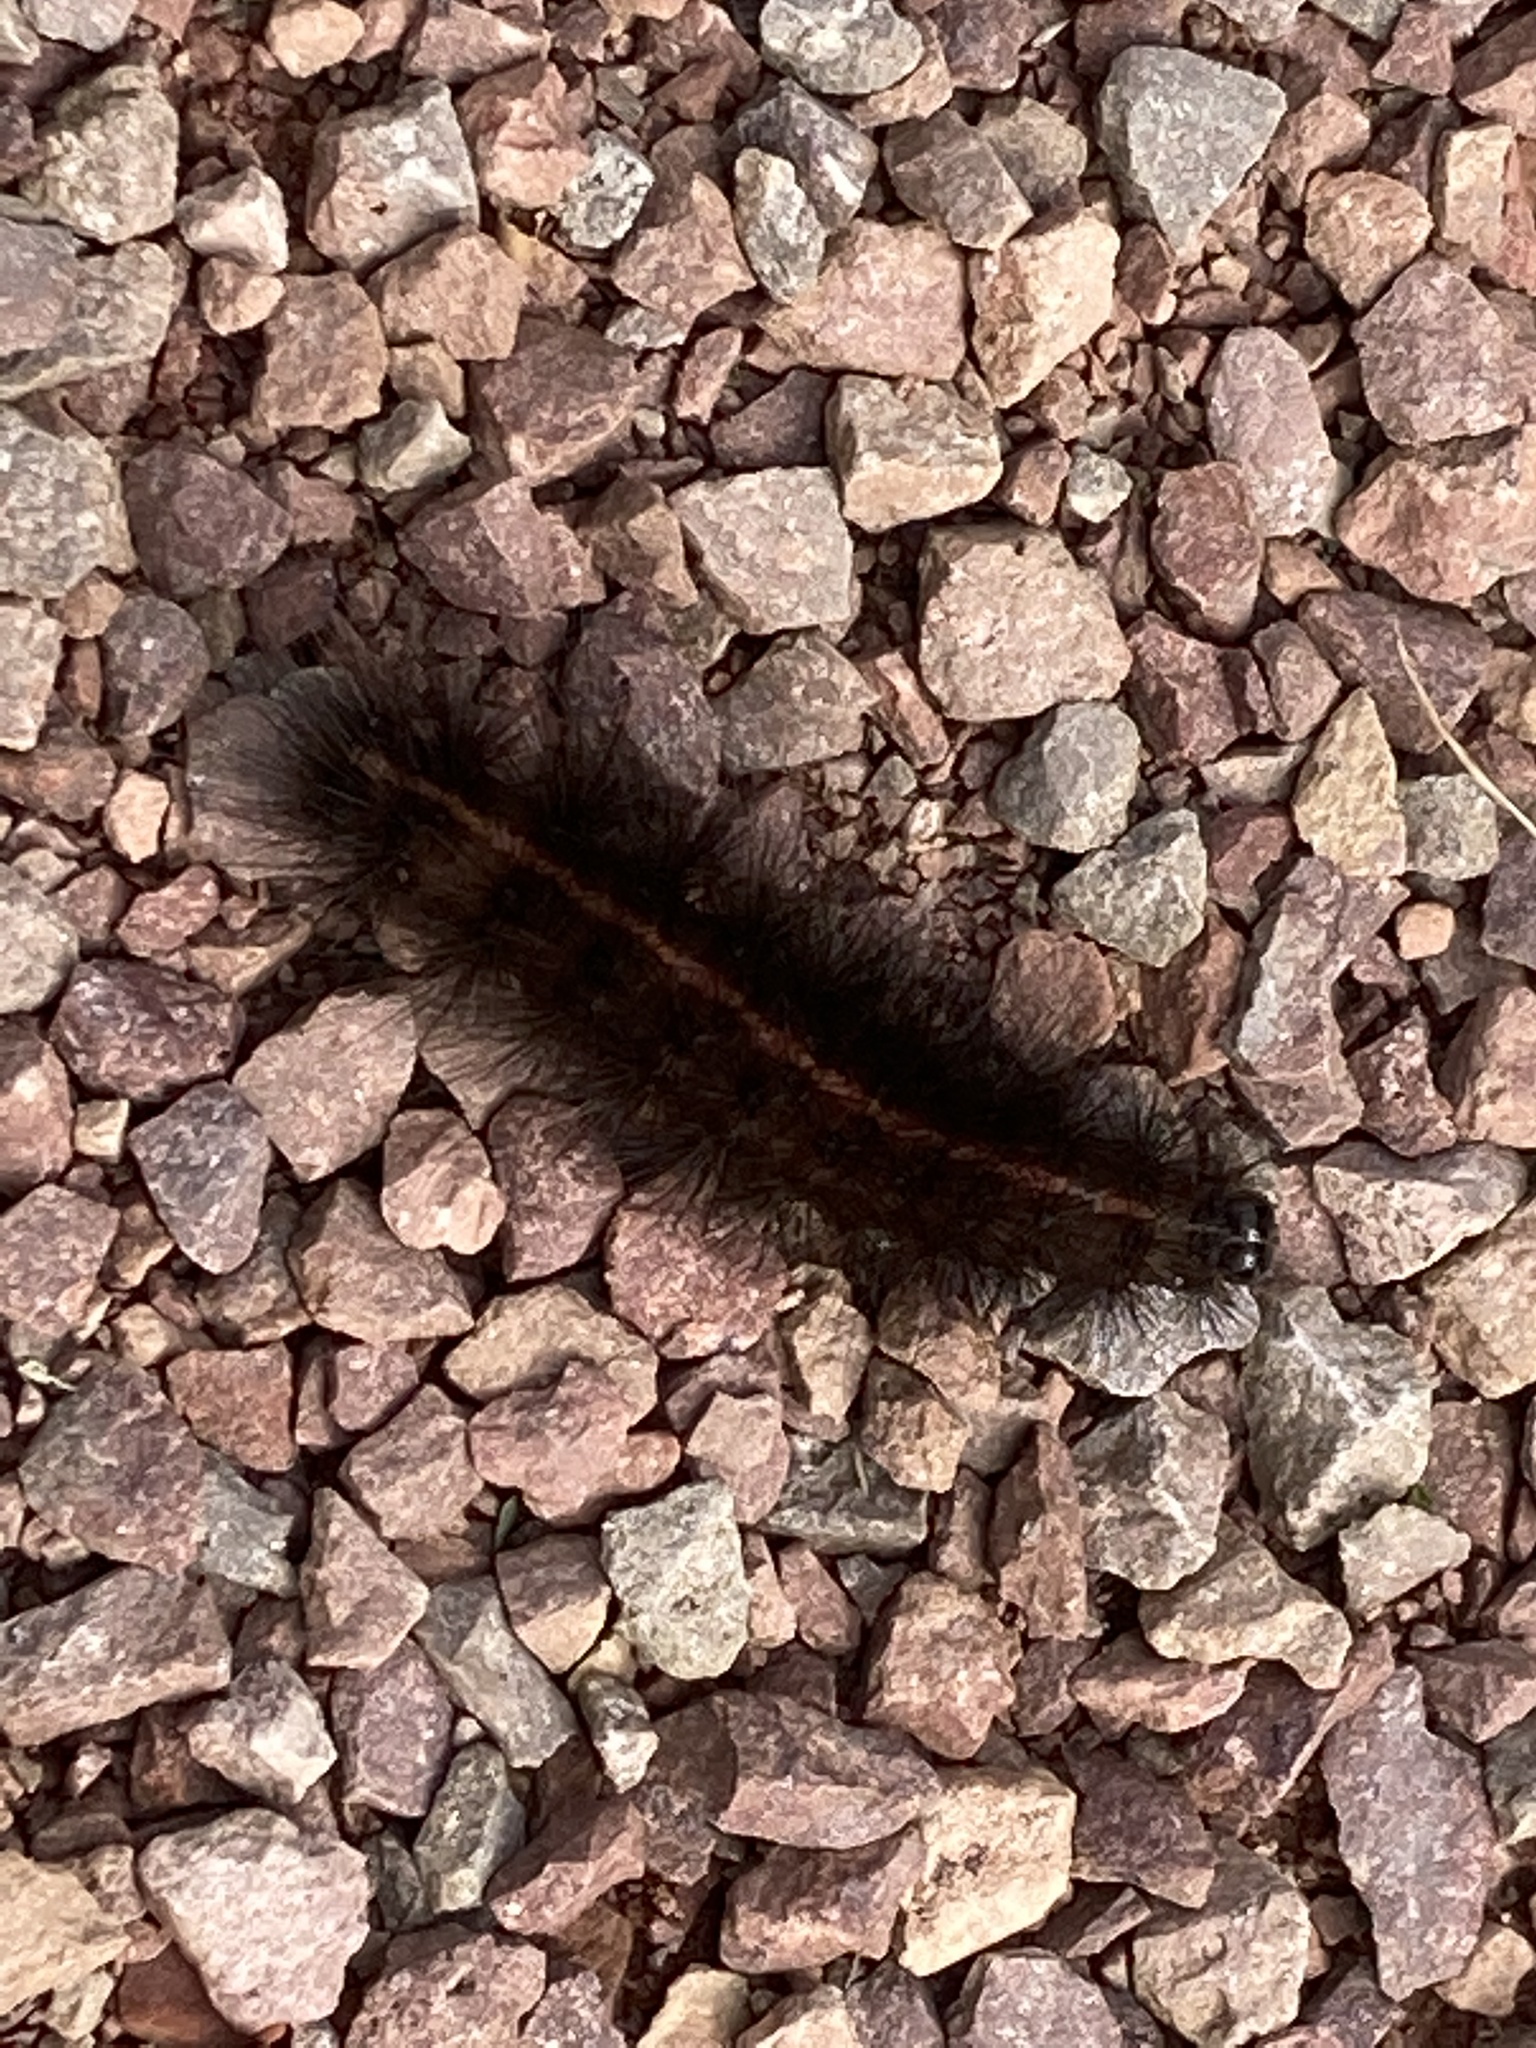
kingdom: Animalia
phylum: Arthropoda
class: Insecta
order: Lepidoptera
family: Erebidae
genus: Spilosoma
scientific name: Spilosoma lubricipeda
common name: White ermine
